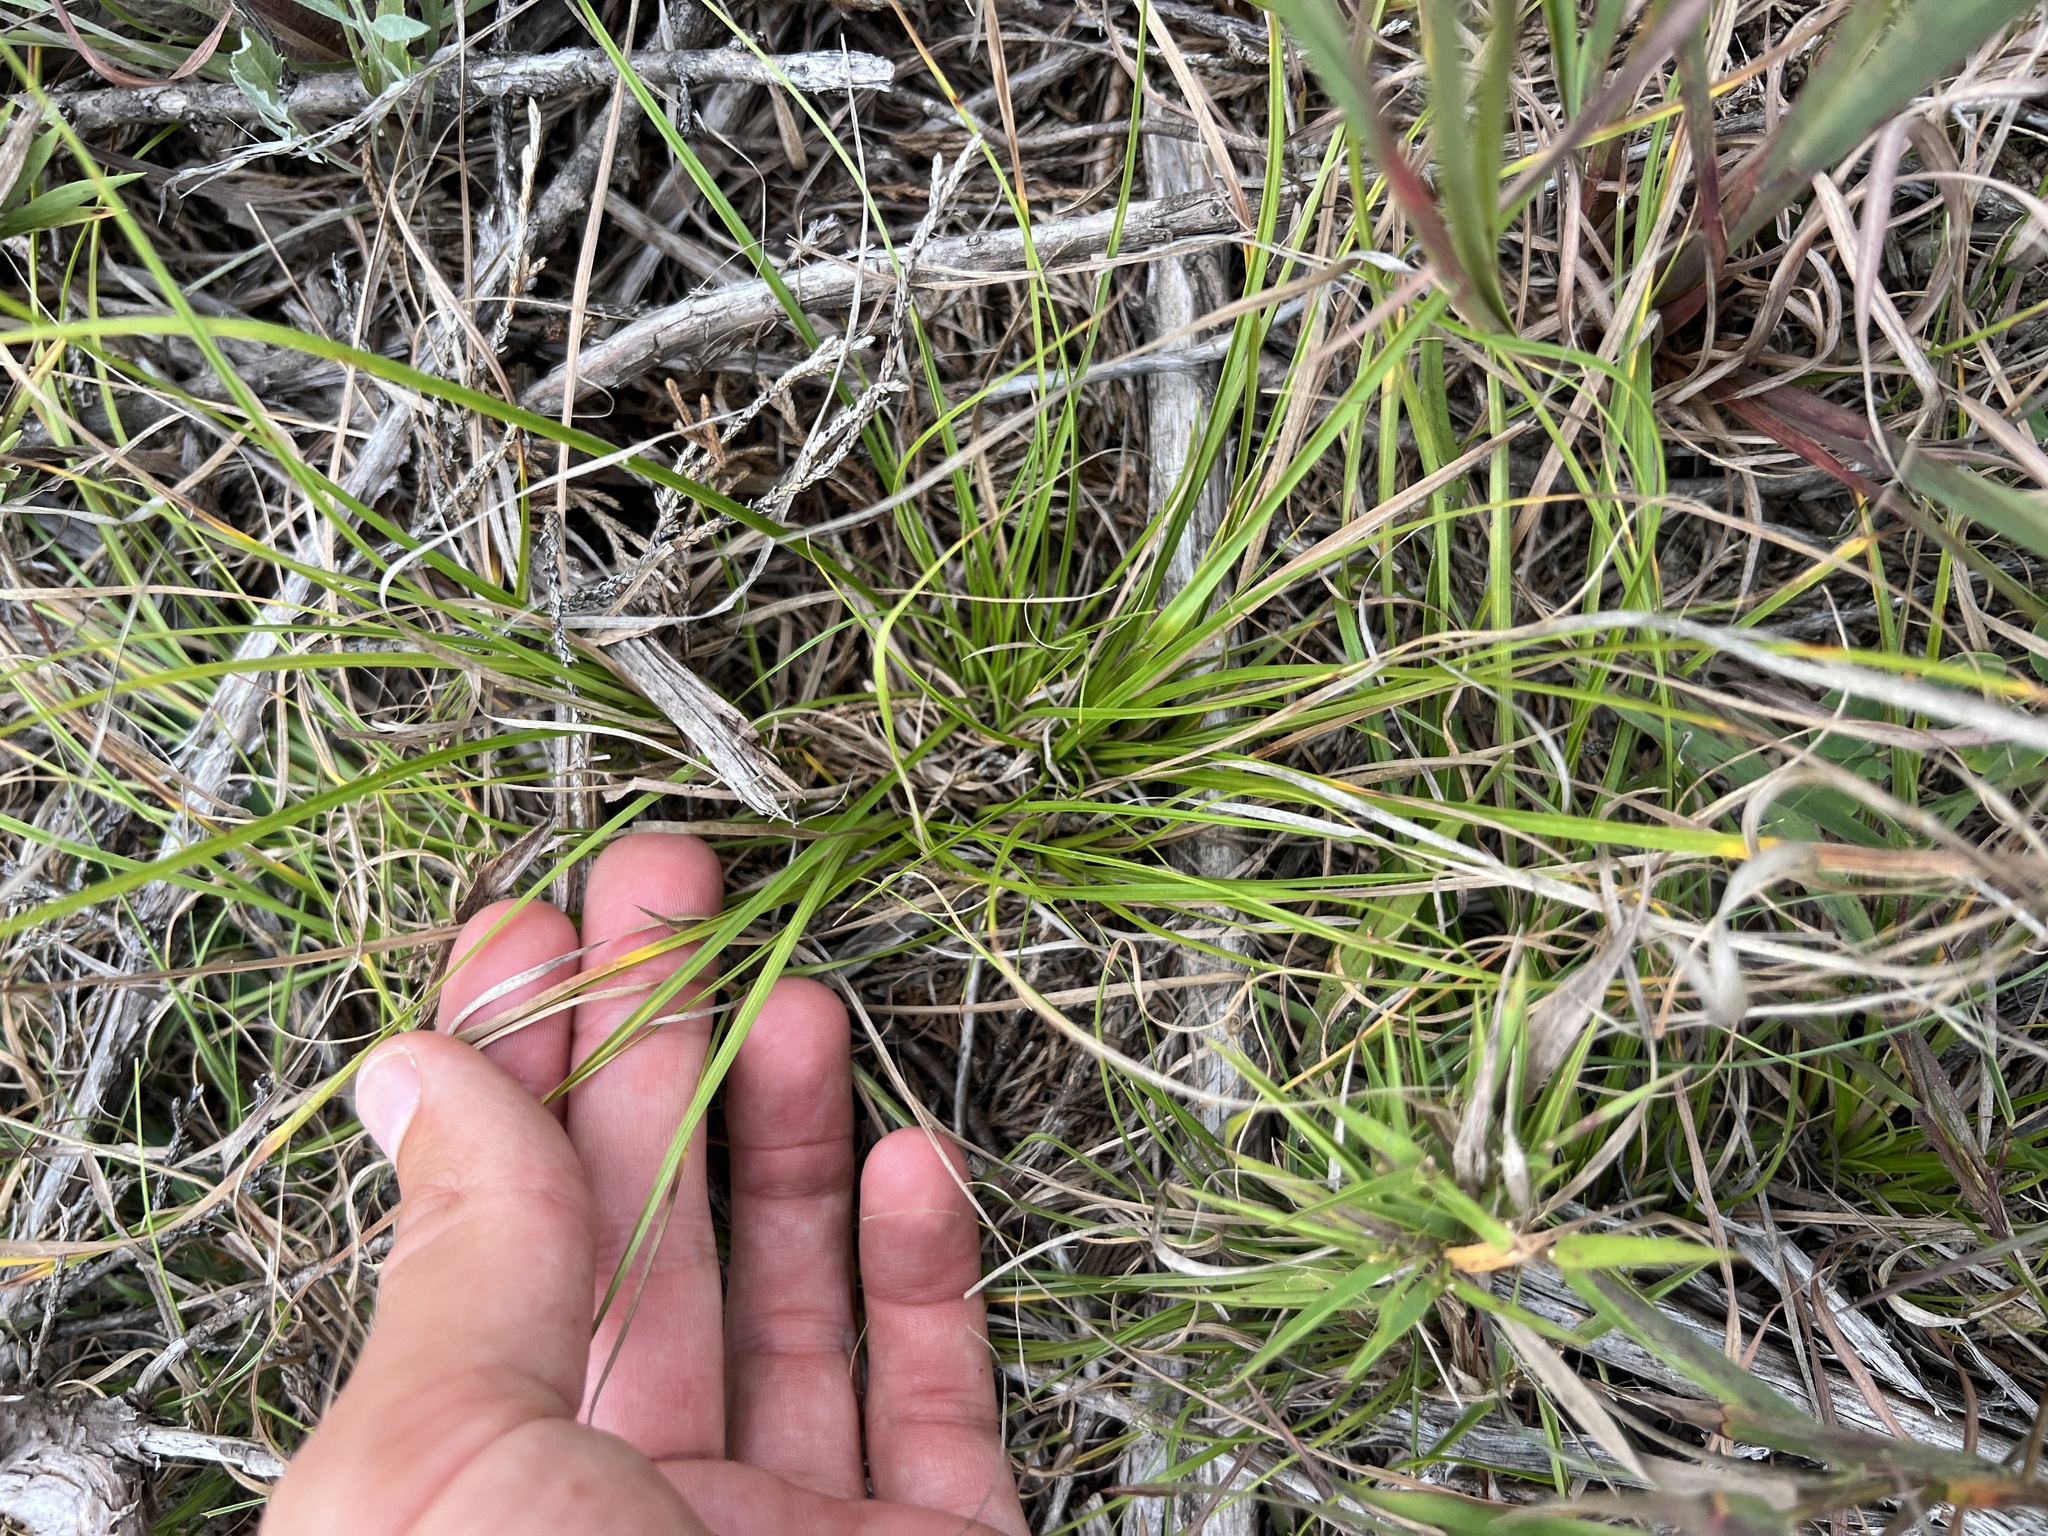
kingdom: Plantae
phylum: Tracheophyta
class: Liliopsida
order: Poales
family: Cyperaceae
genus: Carex
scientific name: Carex umbellata
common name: Early oak sedge
